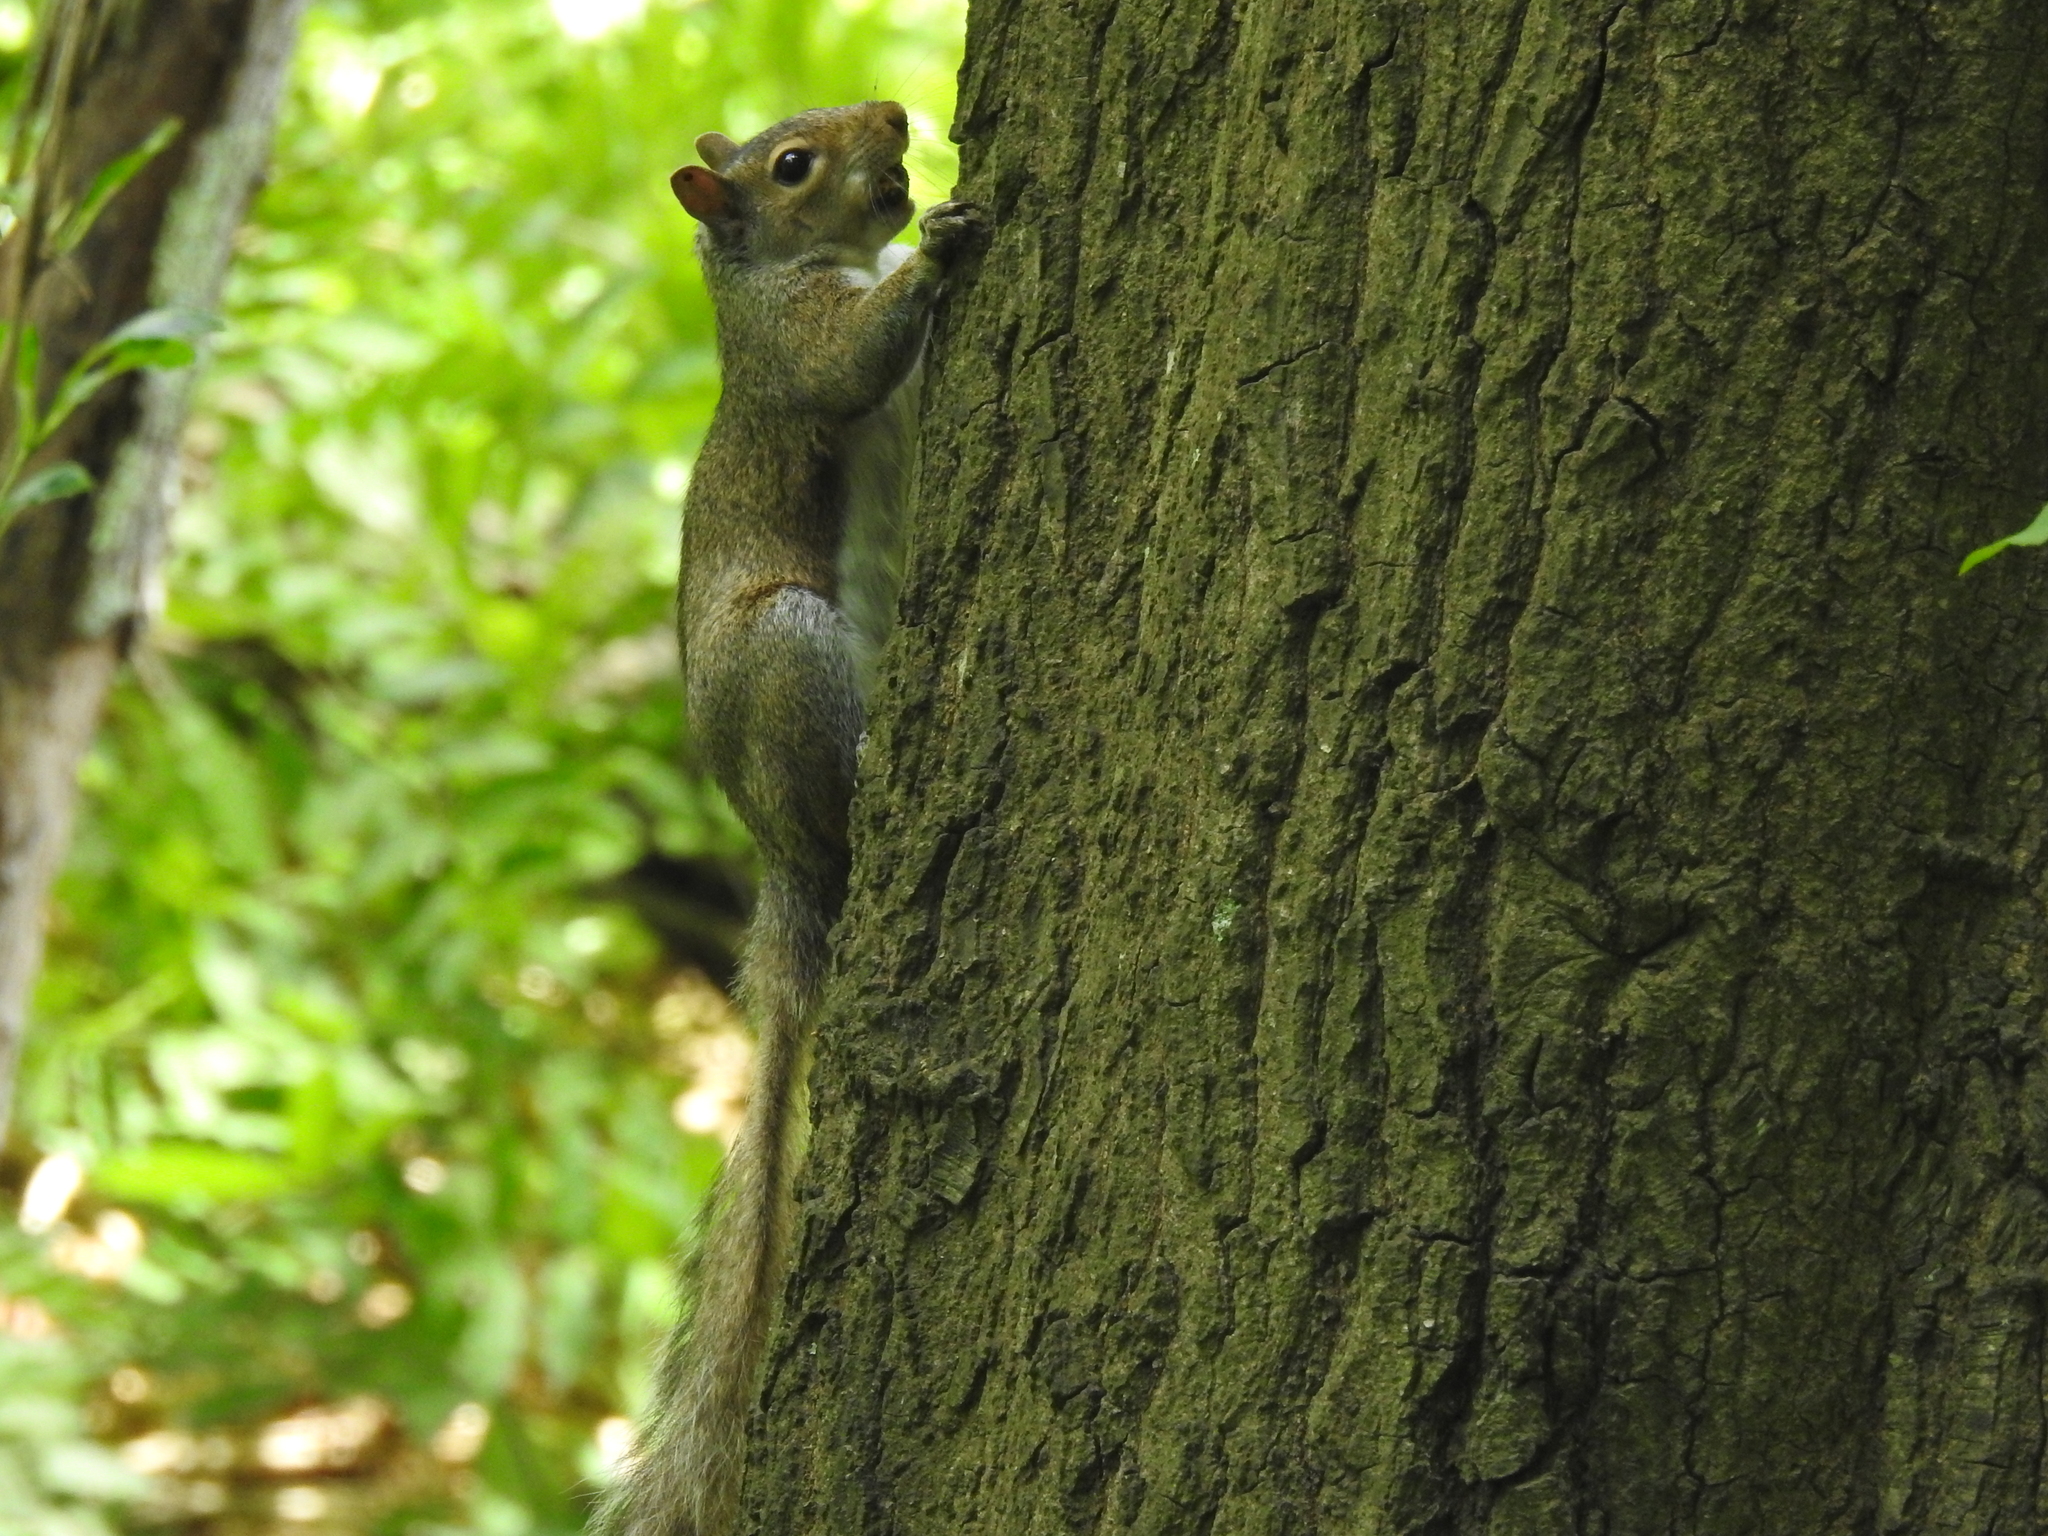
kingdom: Animalia
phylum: Chordata
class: Mammalia
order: Rodentia
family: Sciuridae
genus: Sciurus
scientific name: Sciurus carolinensis
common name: Eastern gray squirrel
